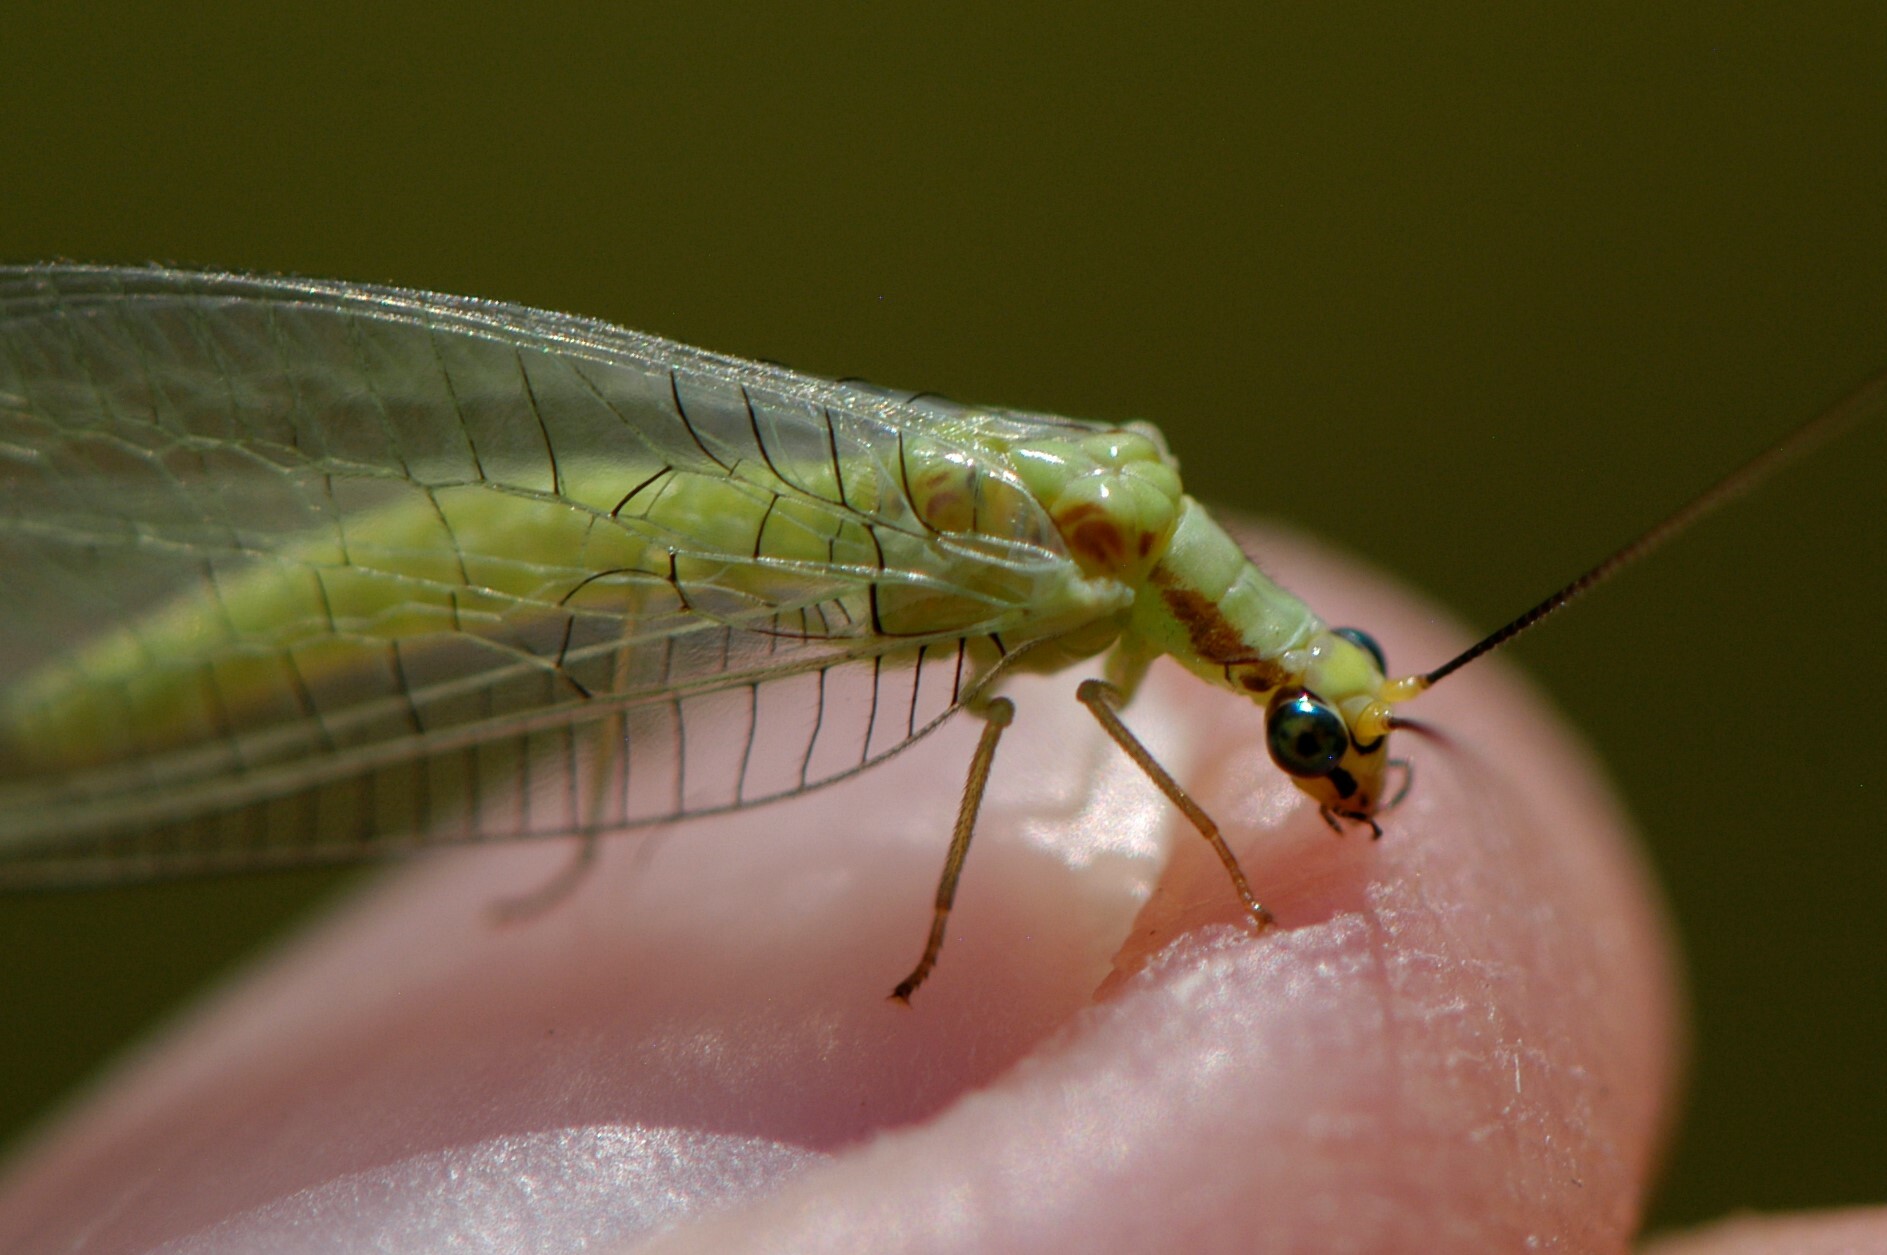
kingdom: Animalia
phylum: Arthropoda
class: Insecta
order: Neuroptera
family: Chrysopidae
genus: Chrysopa
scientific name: Chrysopa coloradensis
